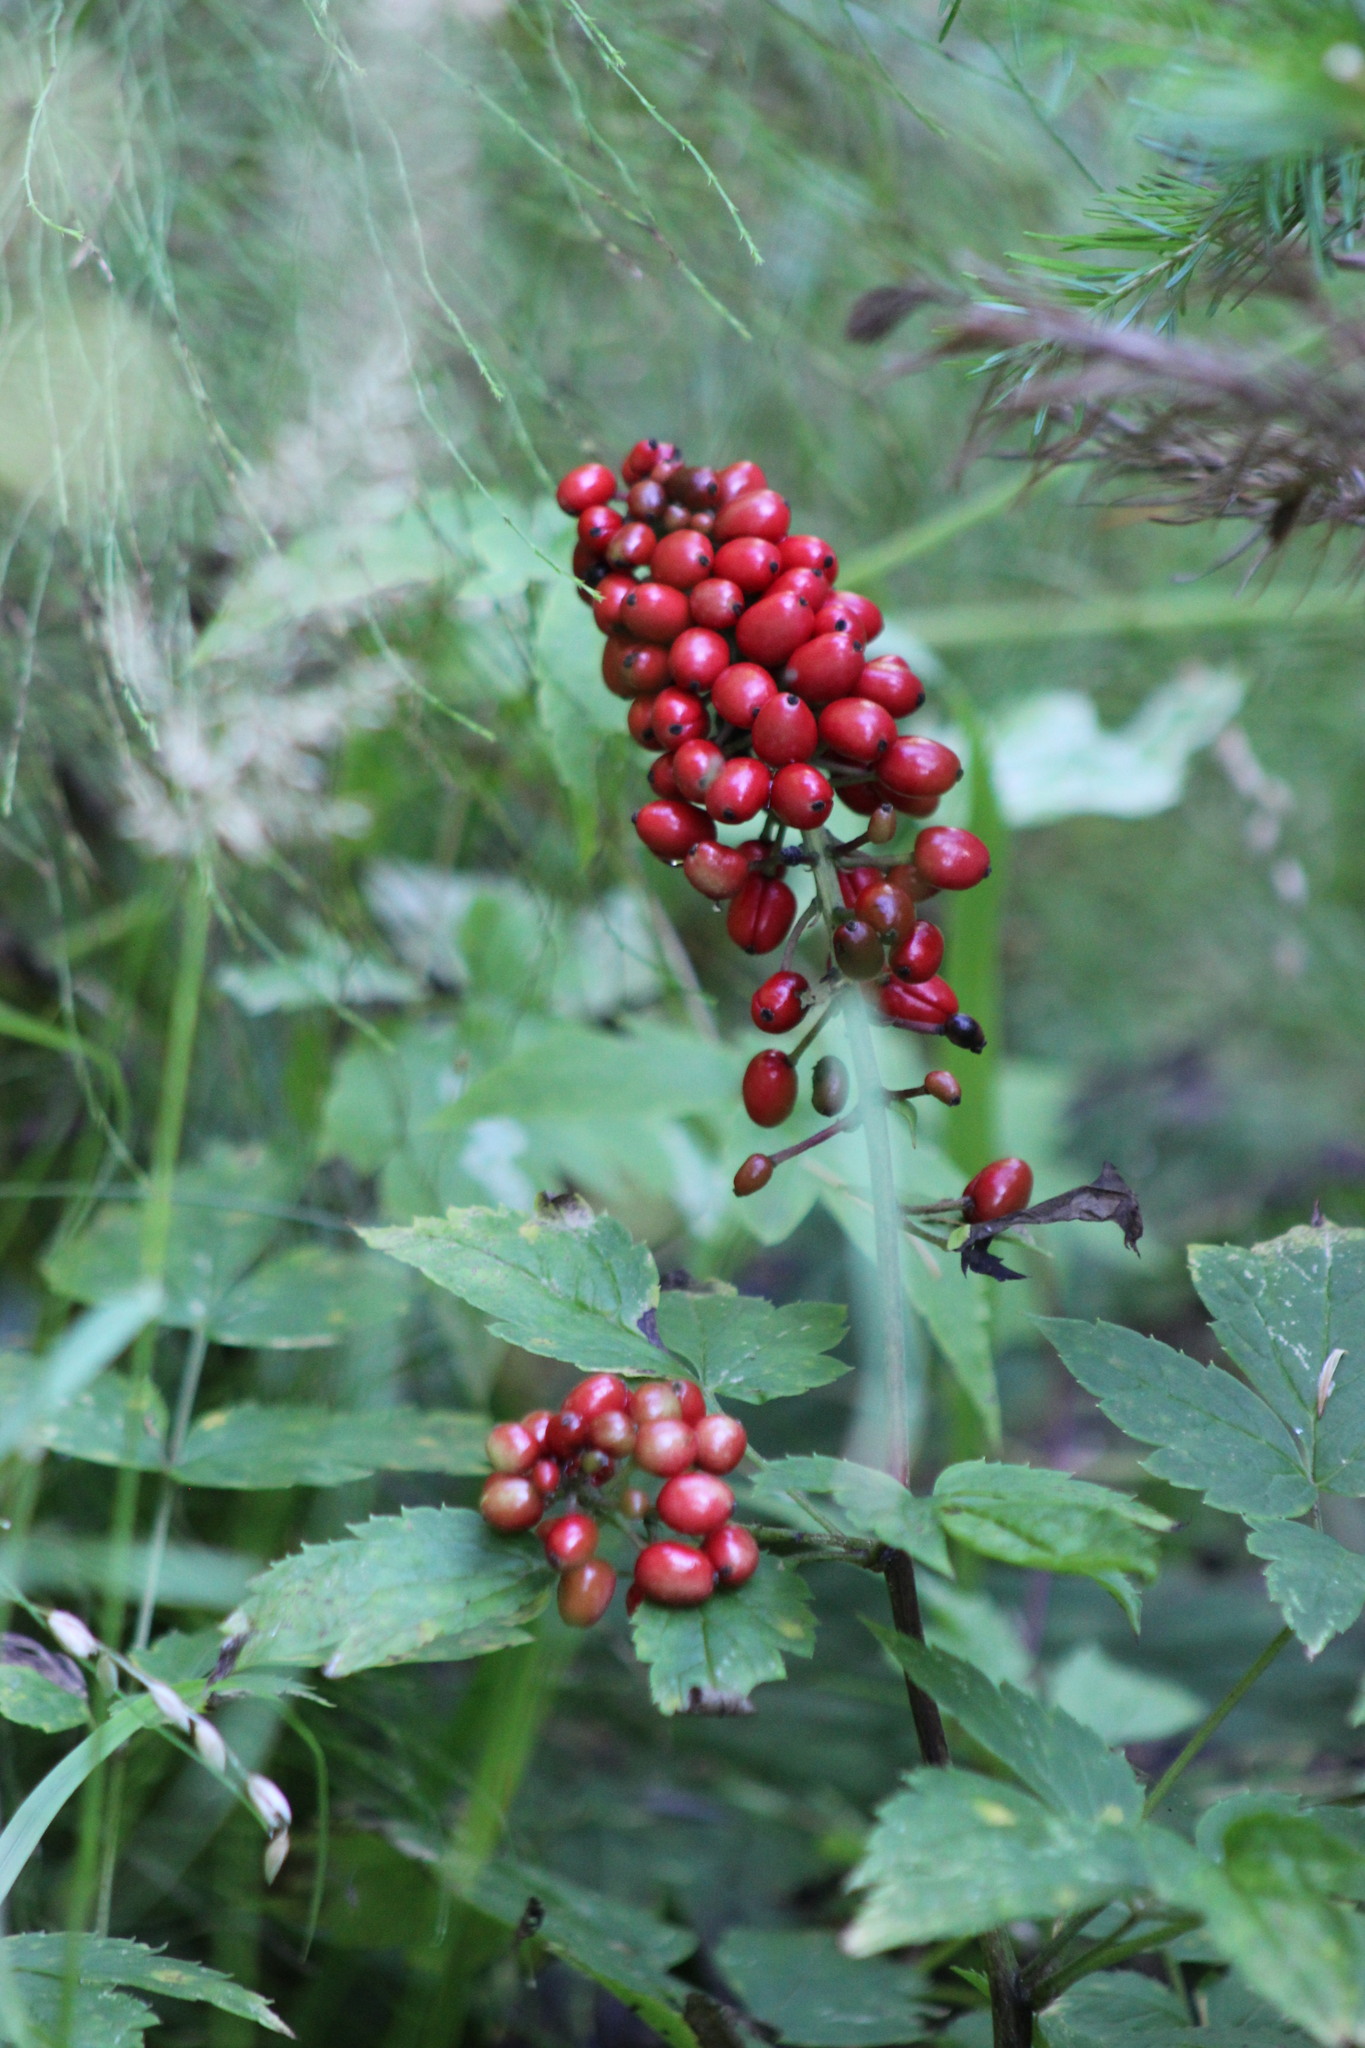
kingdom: Plantae
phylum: Tracheophyta
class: Magnoliopsida
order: Ranunculales
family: Ranunculaceae
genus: Actaea
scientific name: Actaea erythrocarpa
